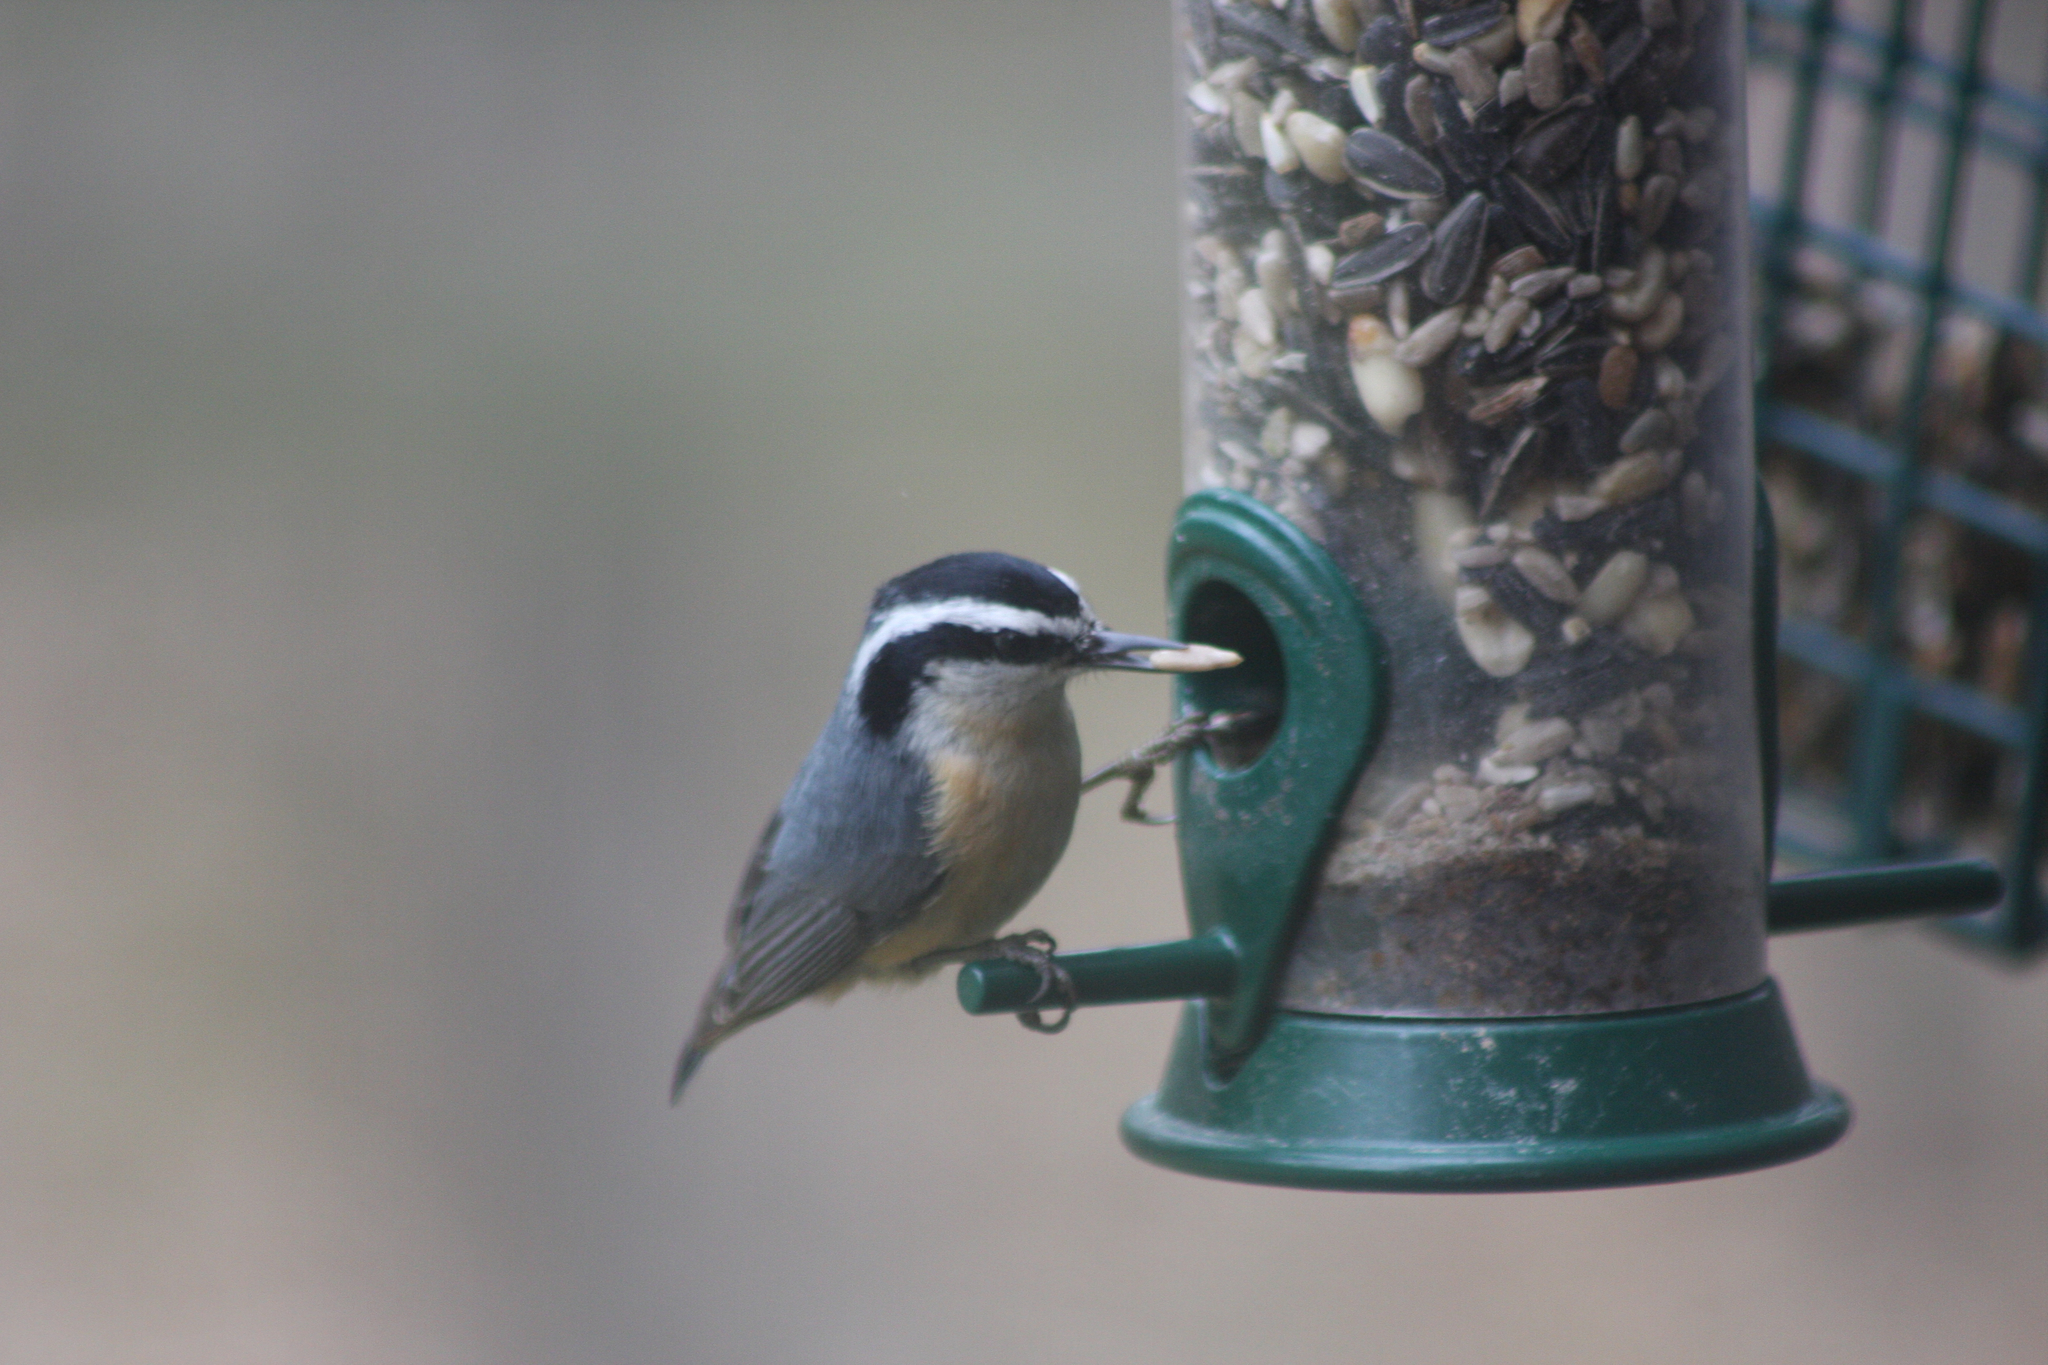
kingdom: Animalia
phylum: Chordata
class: Aves
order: Passeriformes
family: Sittidae
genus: Sitta
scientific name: Sitta canadensis
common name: Red-breasted nuthatch
